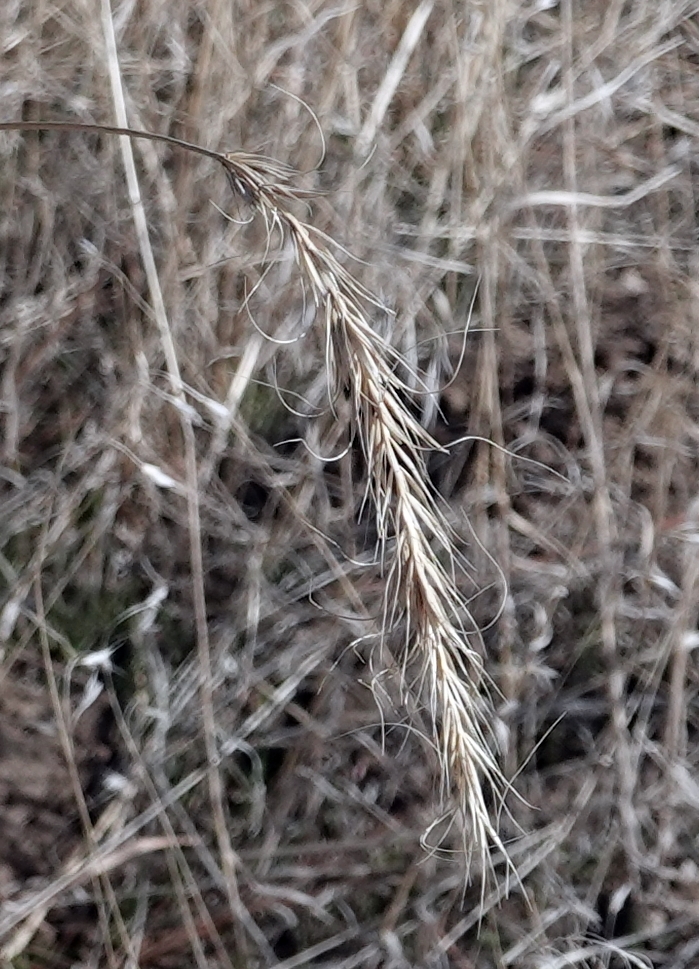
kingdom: Plantae
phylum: Tracheophyta
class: Liliopsida
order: Poales
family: Poaceae
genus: Elymus
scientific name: Elymus canadensis
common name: Canada wild rye
